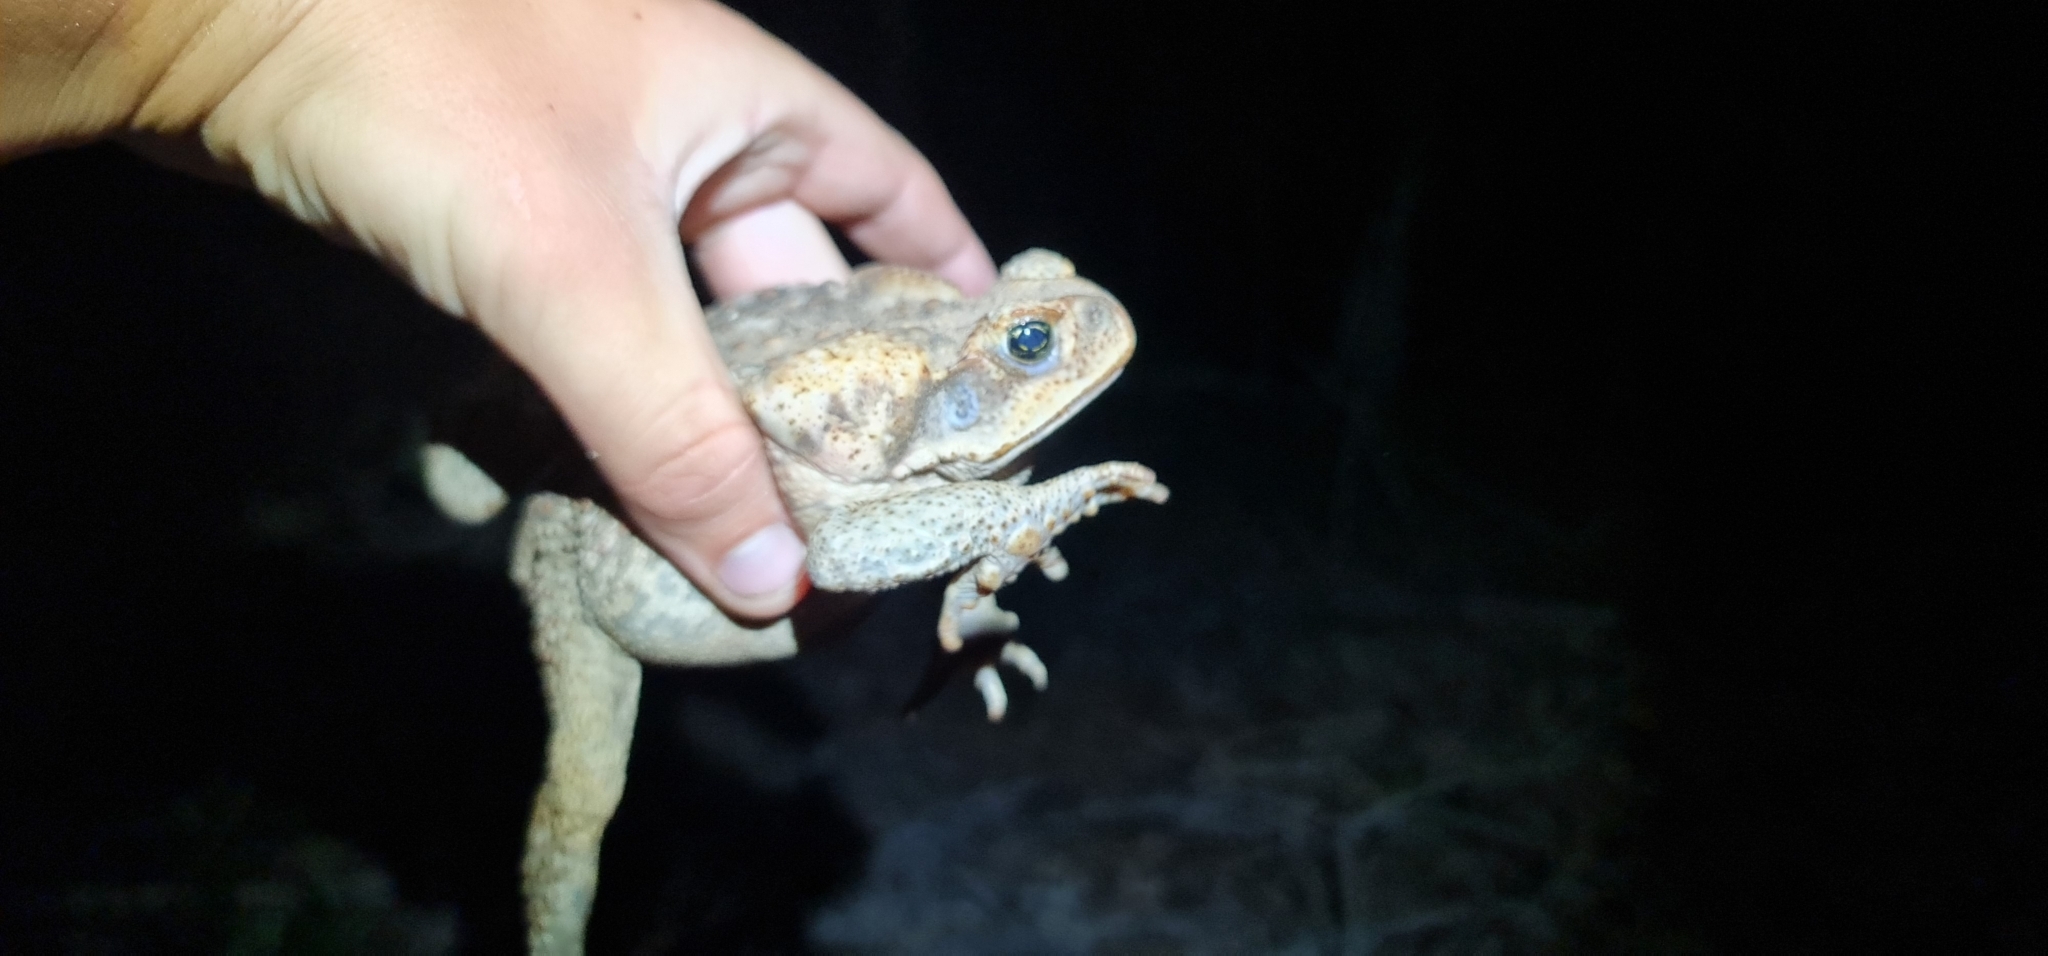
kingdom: Animalia
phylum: Chordata
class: Amphibia
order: Anura
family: Bufonidae
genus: Rhinella
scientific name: Rhinella marina
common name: Cane toad
